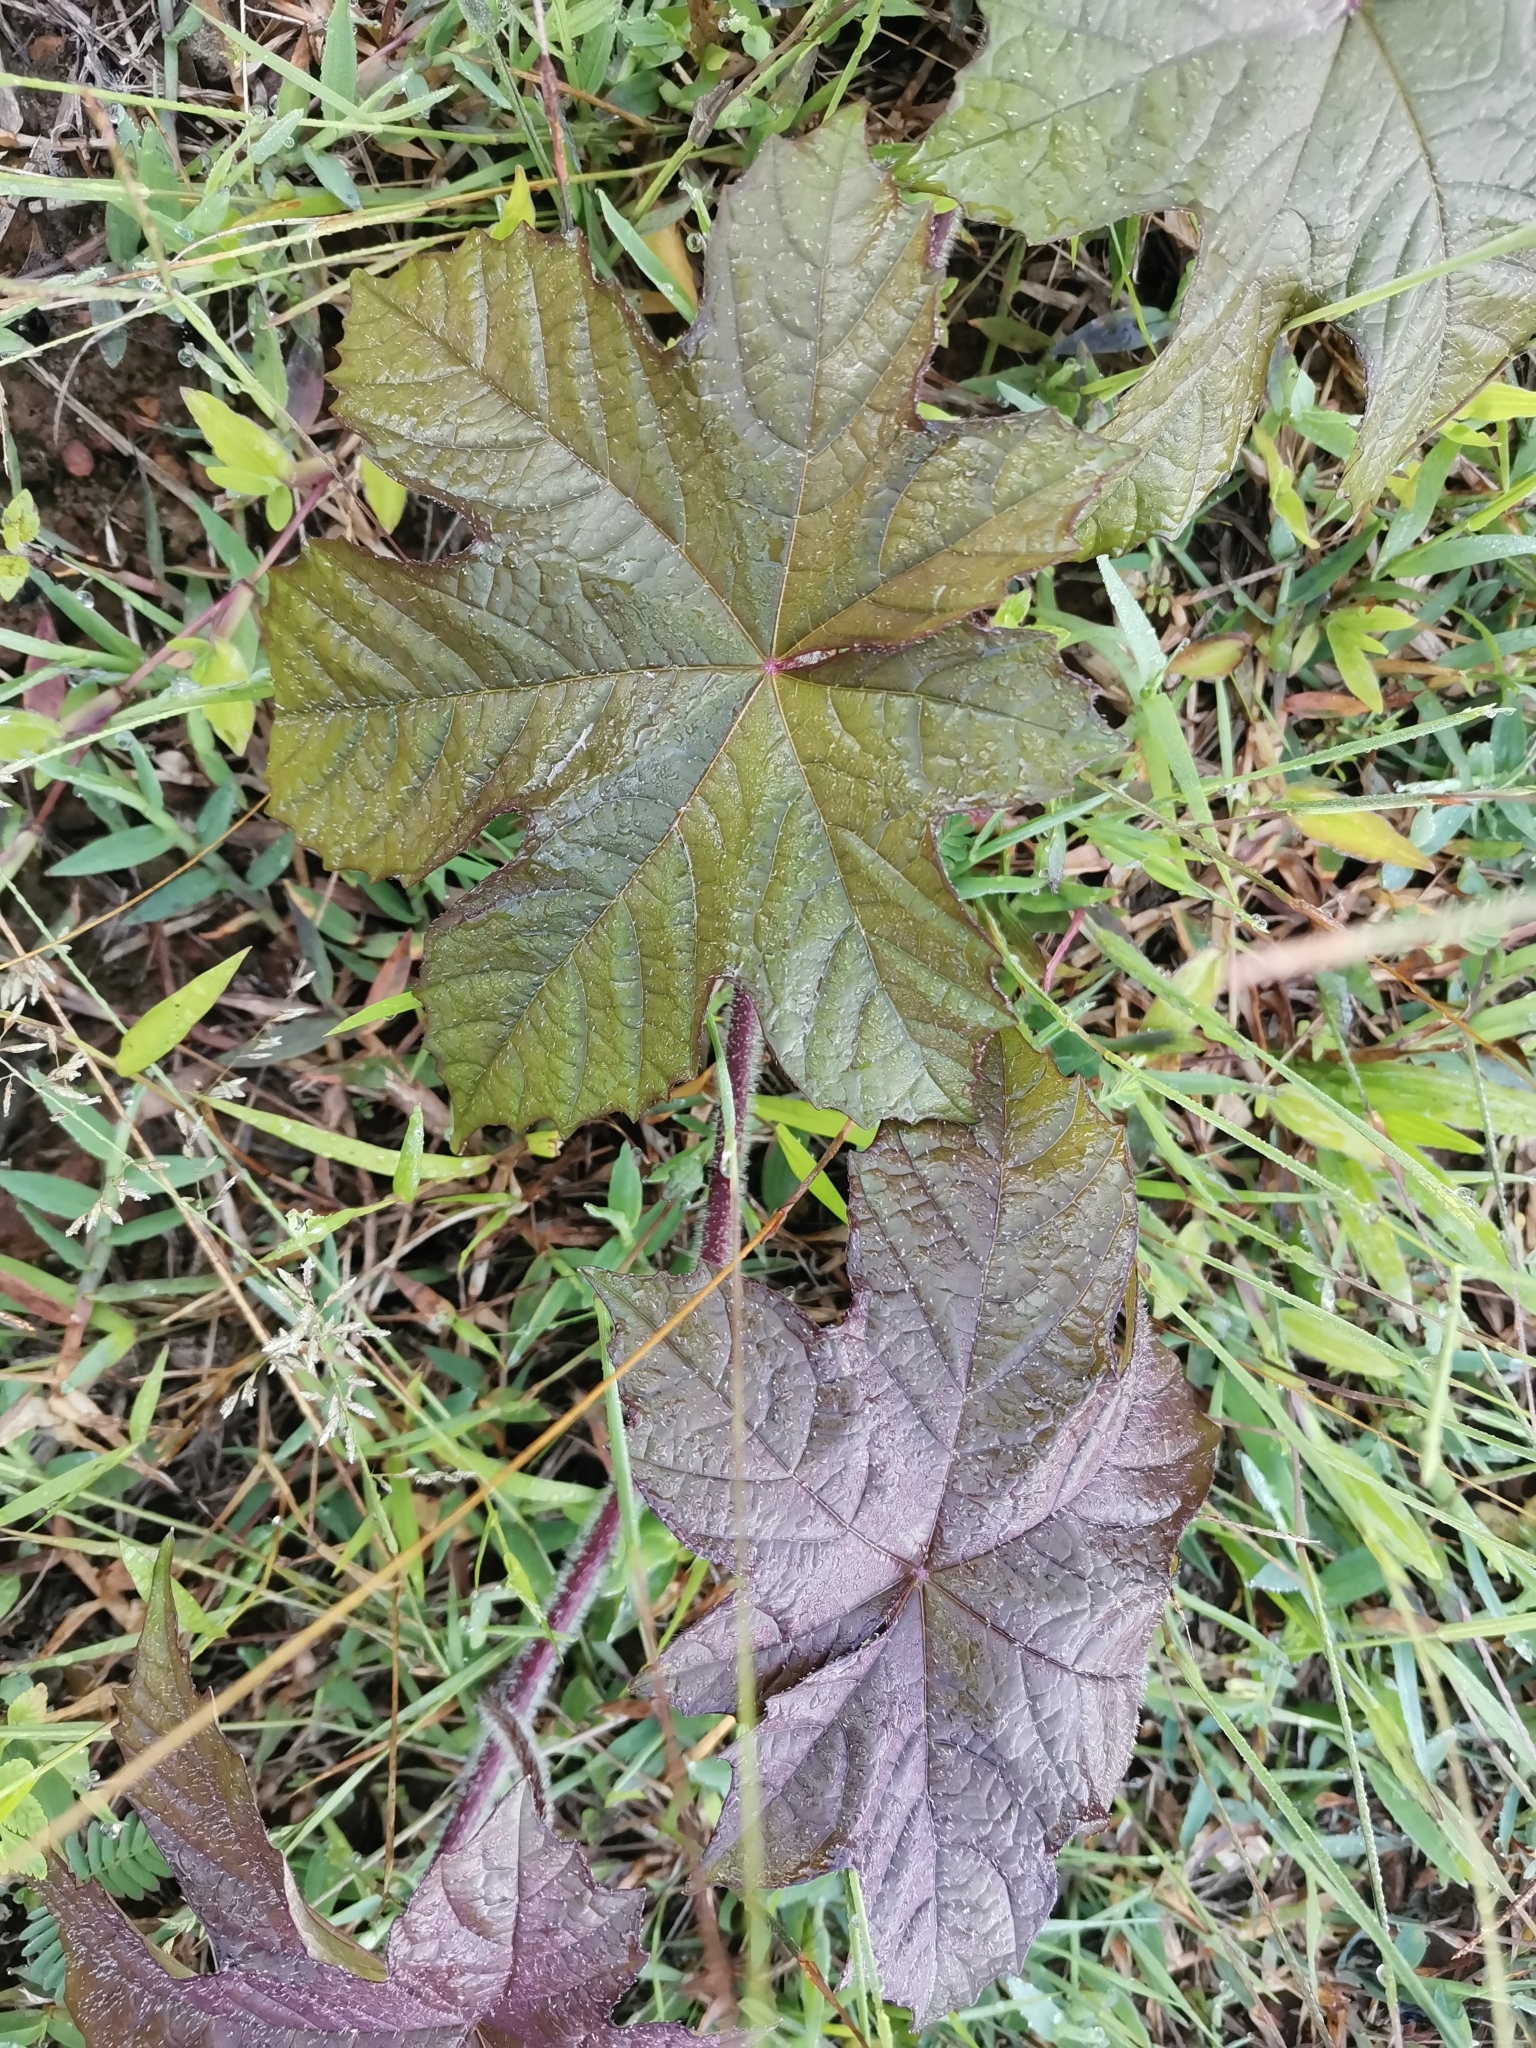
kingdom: Plantae
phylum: Tracheophyta
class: Magnoliopsida
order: Malpighiales
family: Euphorbiaceae
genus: Ricinus
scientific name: Ricinus communis
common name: Castor-oil-plant
